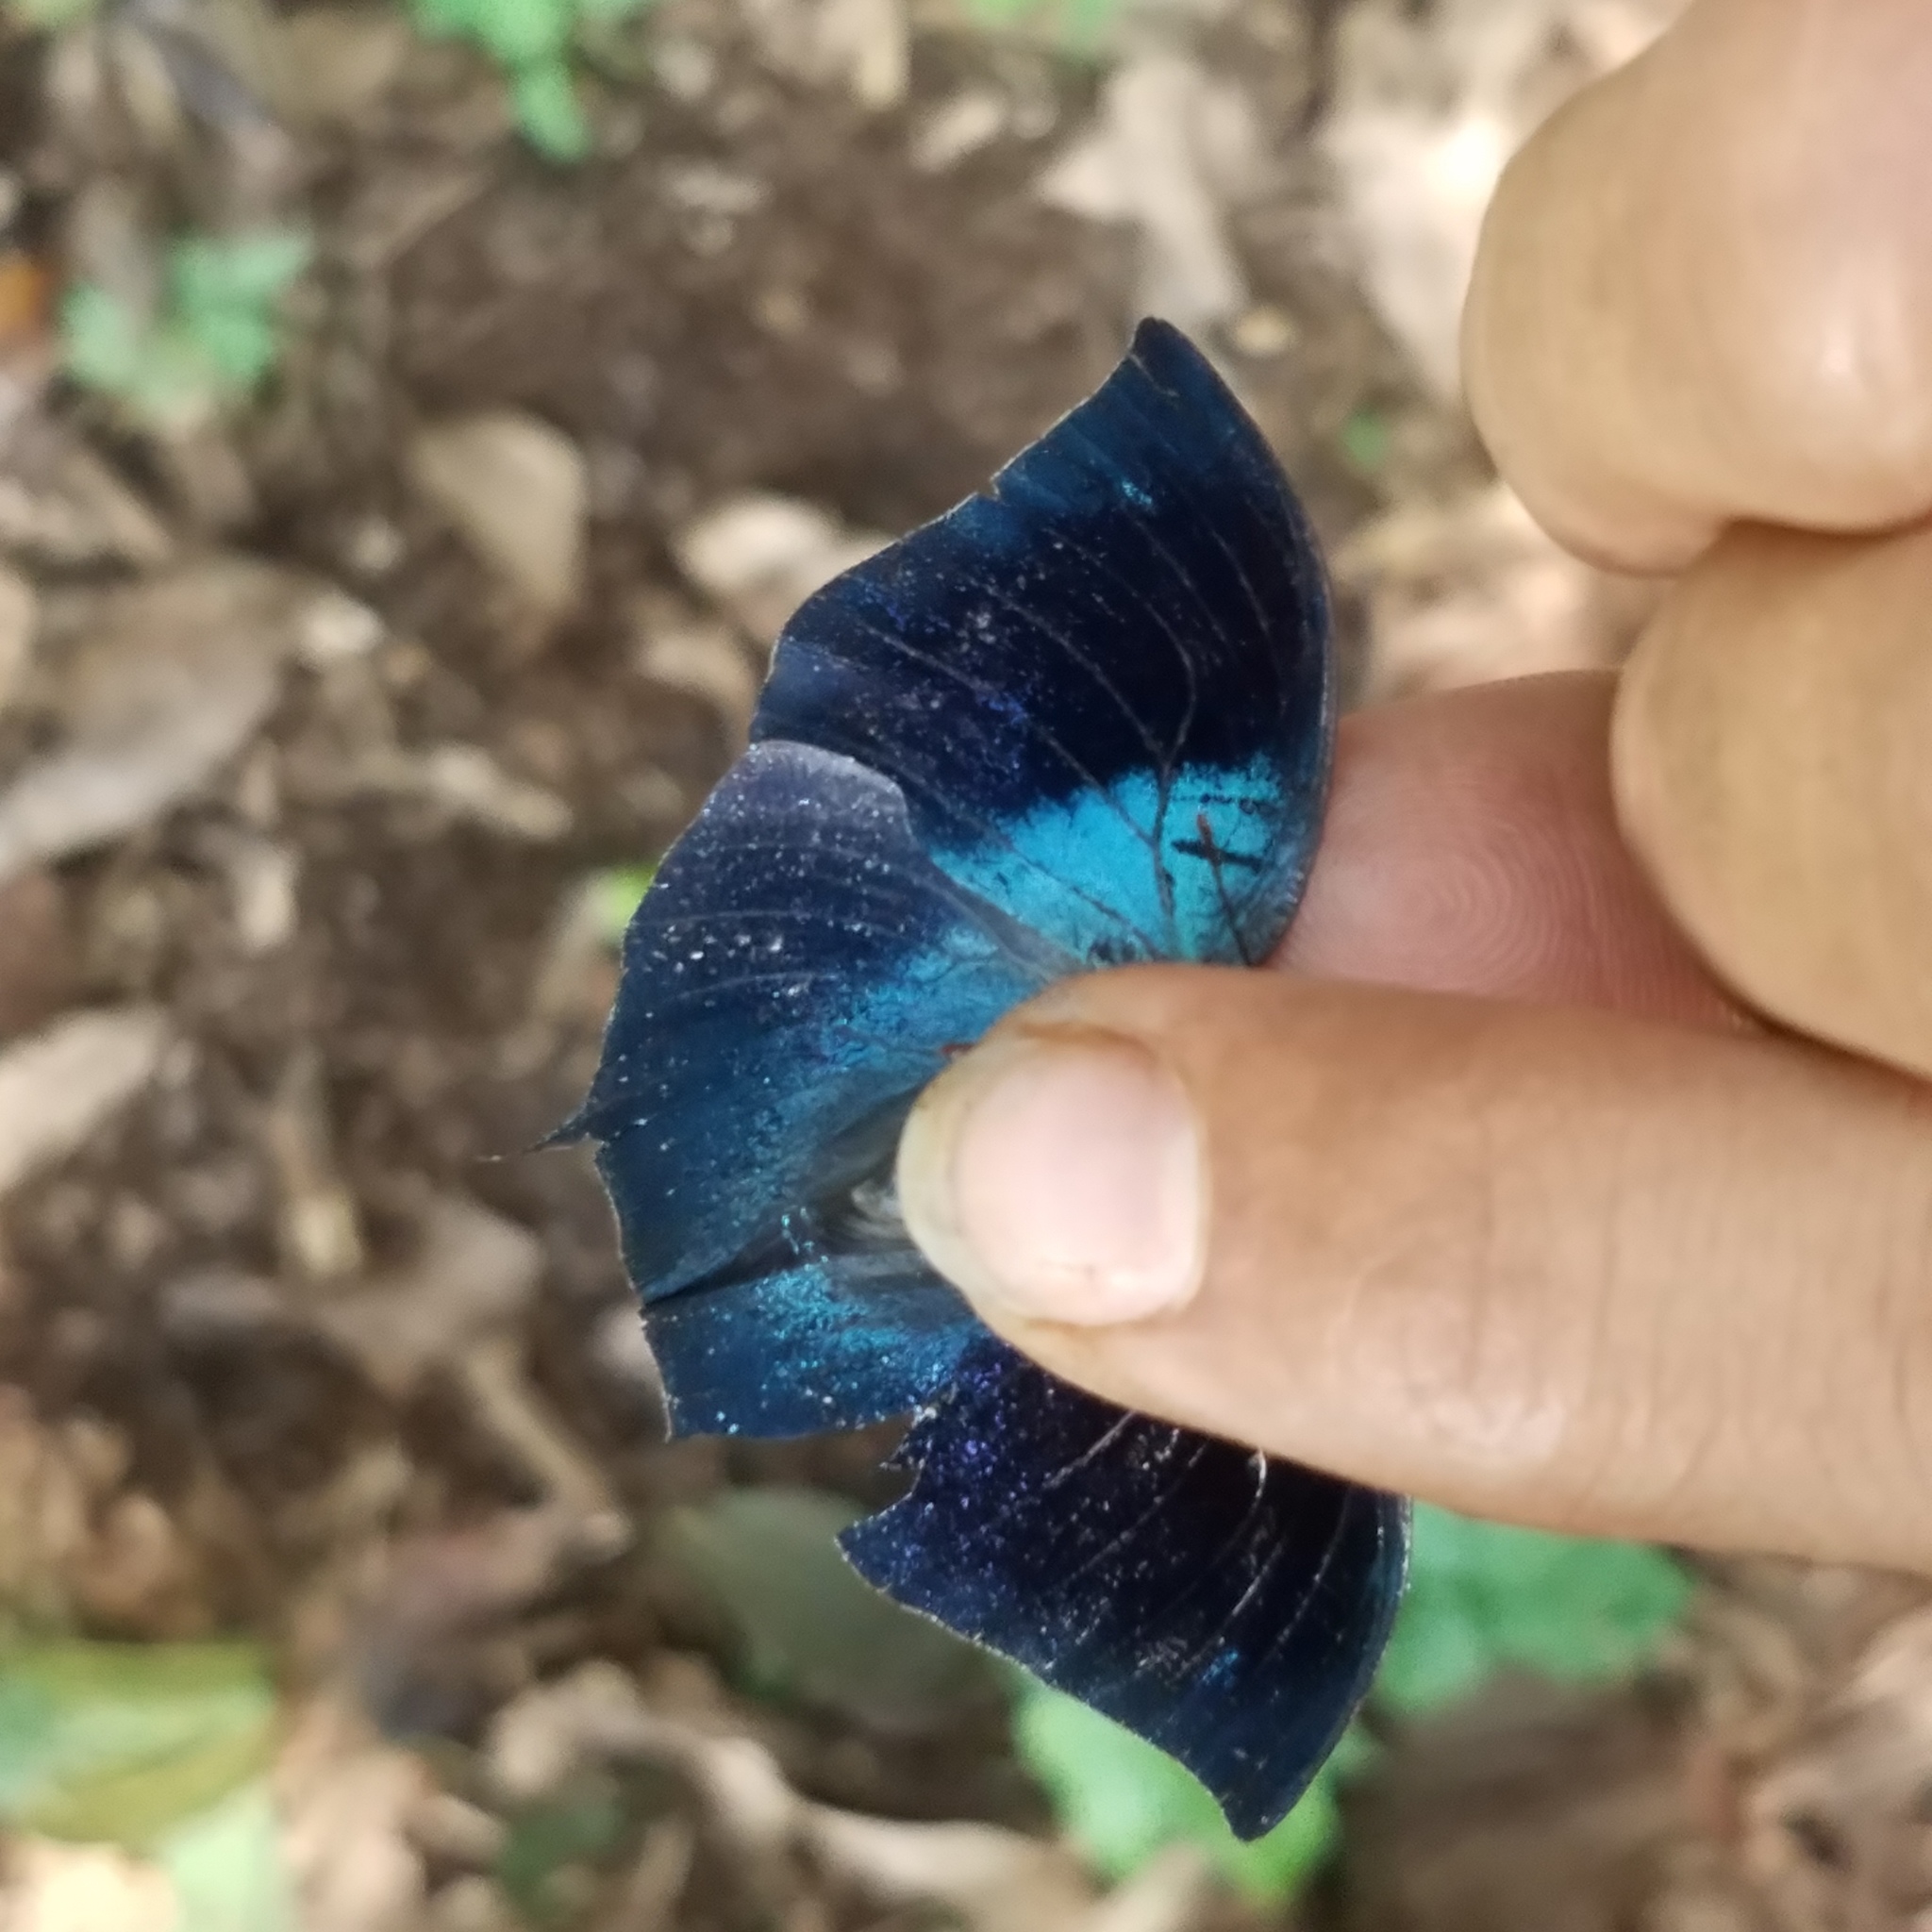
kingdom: Animalia
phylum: Arthropoda
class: Insecta
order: Lepidoptera
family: Nymphalidae
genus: Memphis
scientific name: Memphis moruus
